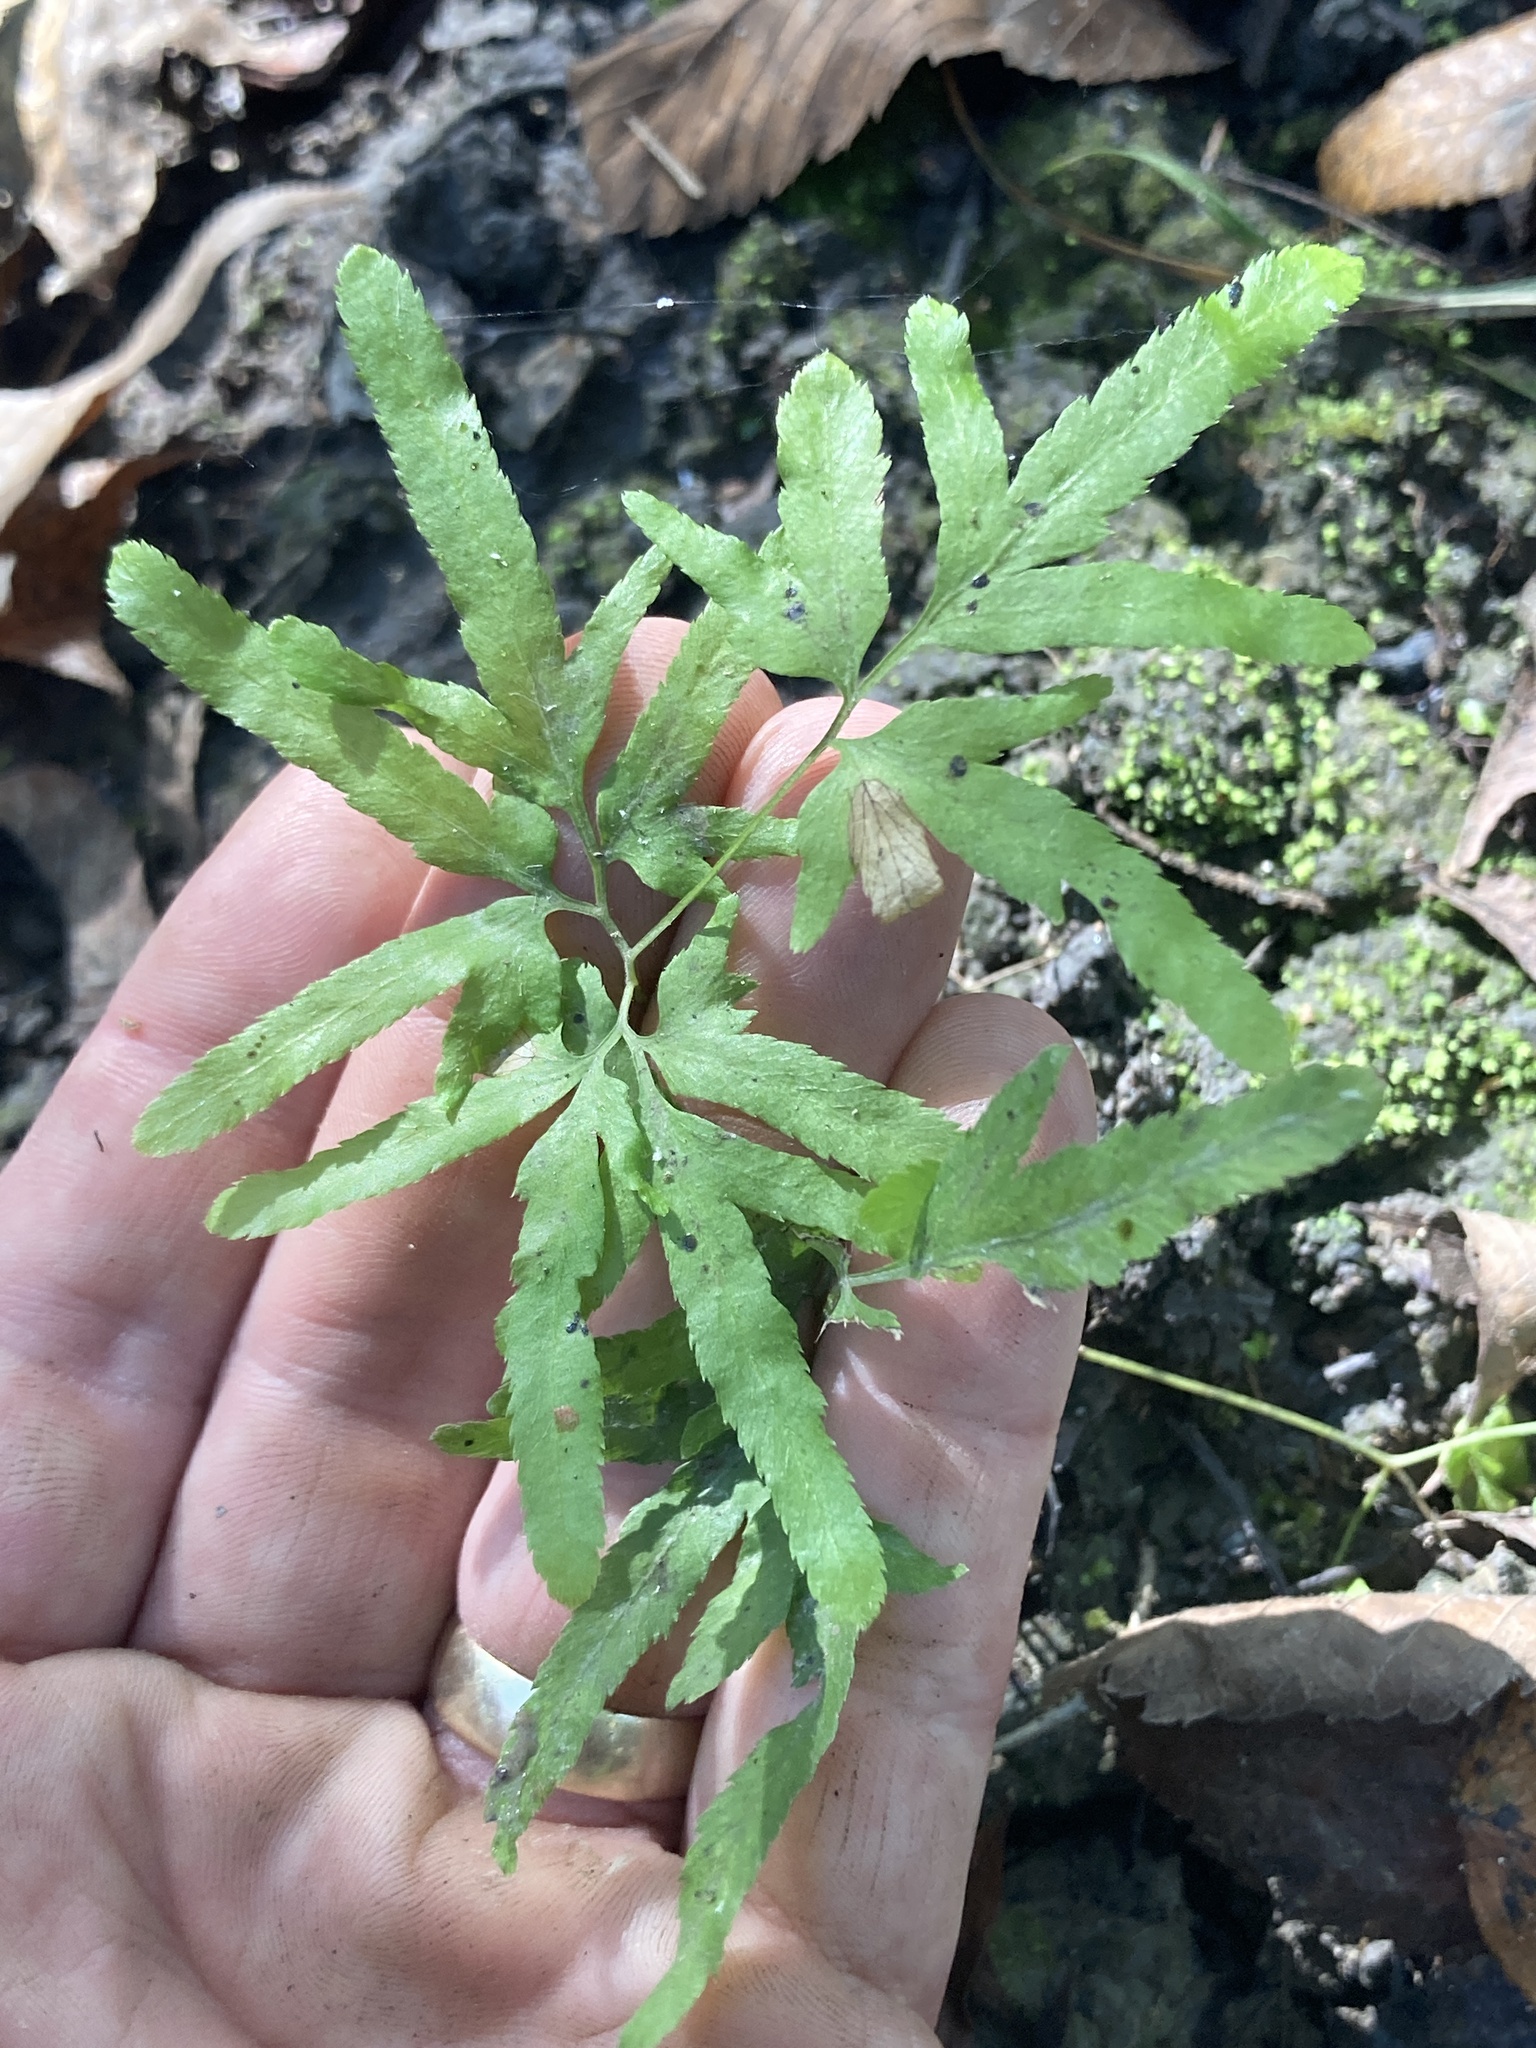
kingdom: Plantae
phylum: Tracheophyta
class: Polypodiopsida
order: Schizaeales
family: Lygodiaceae
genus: Lygodium
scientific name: Lygodium japonicum
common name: Japanese climbing fern
